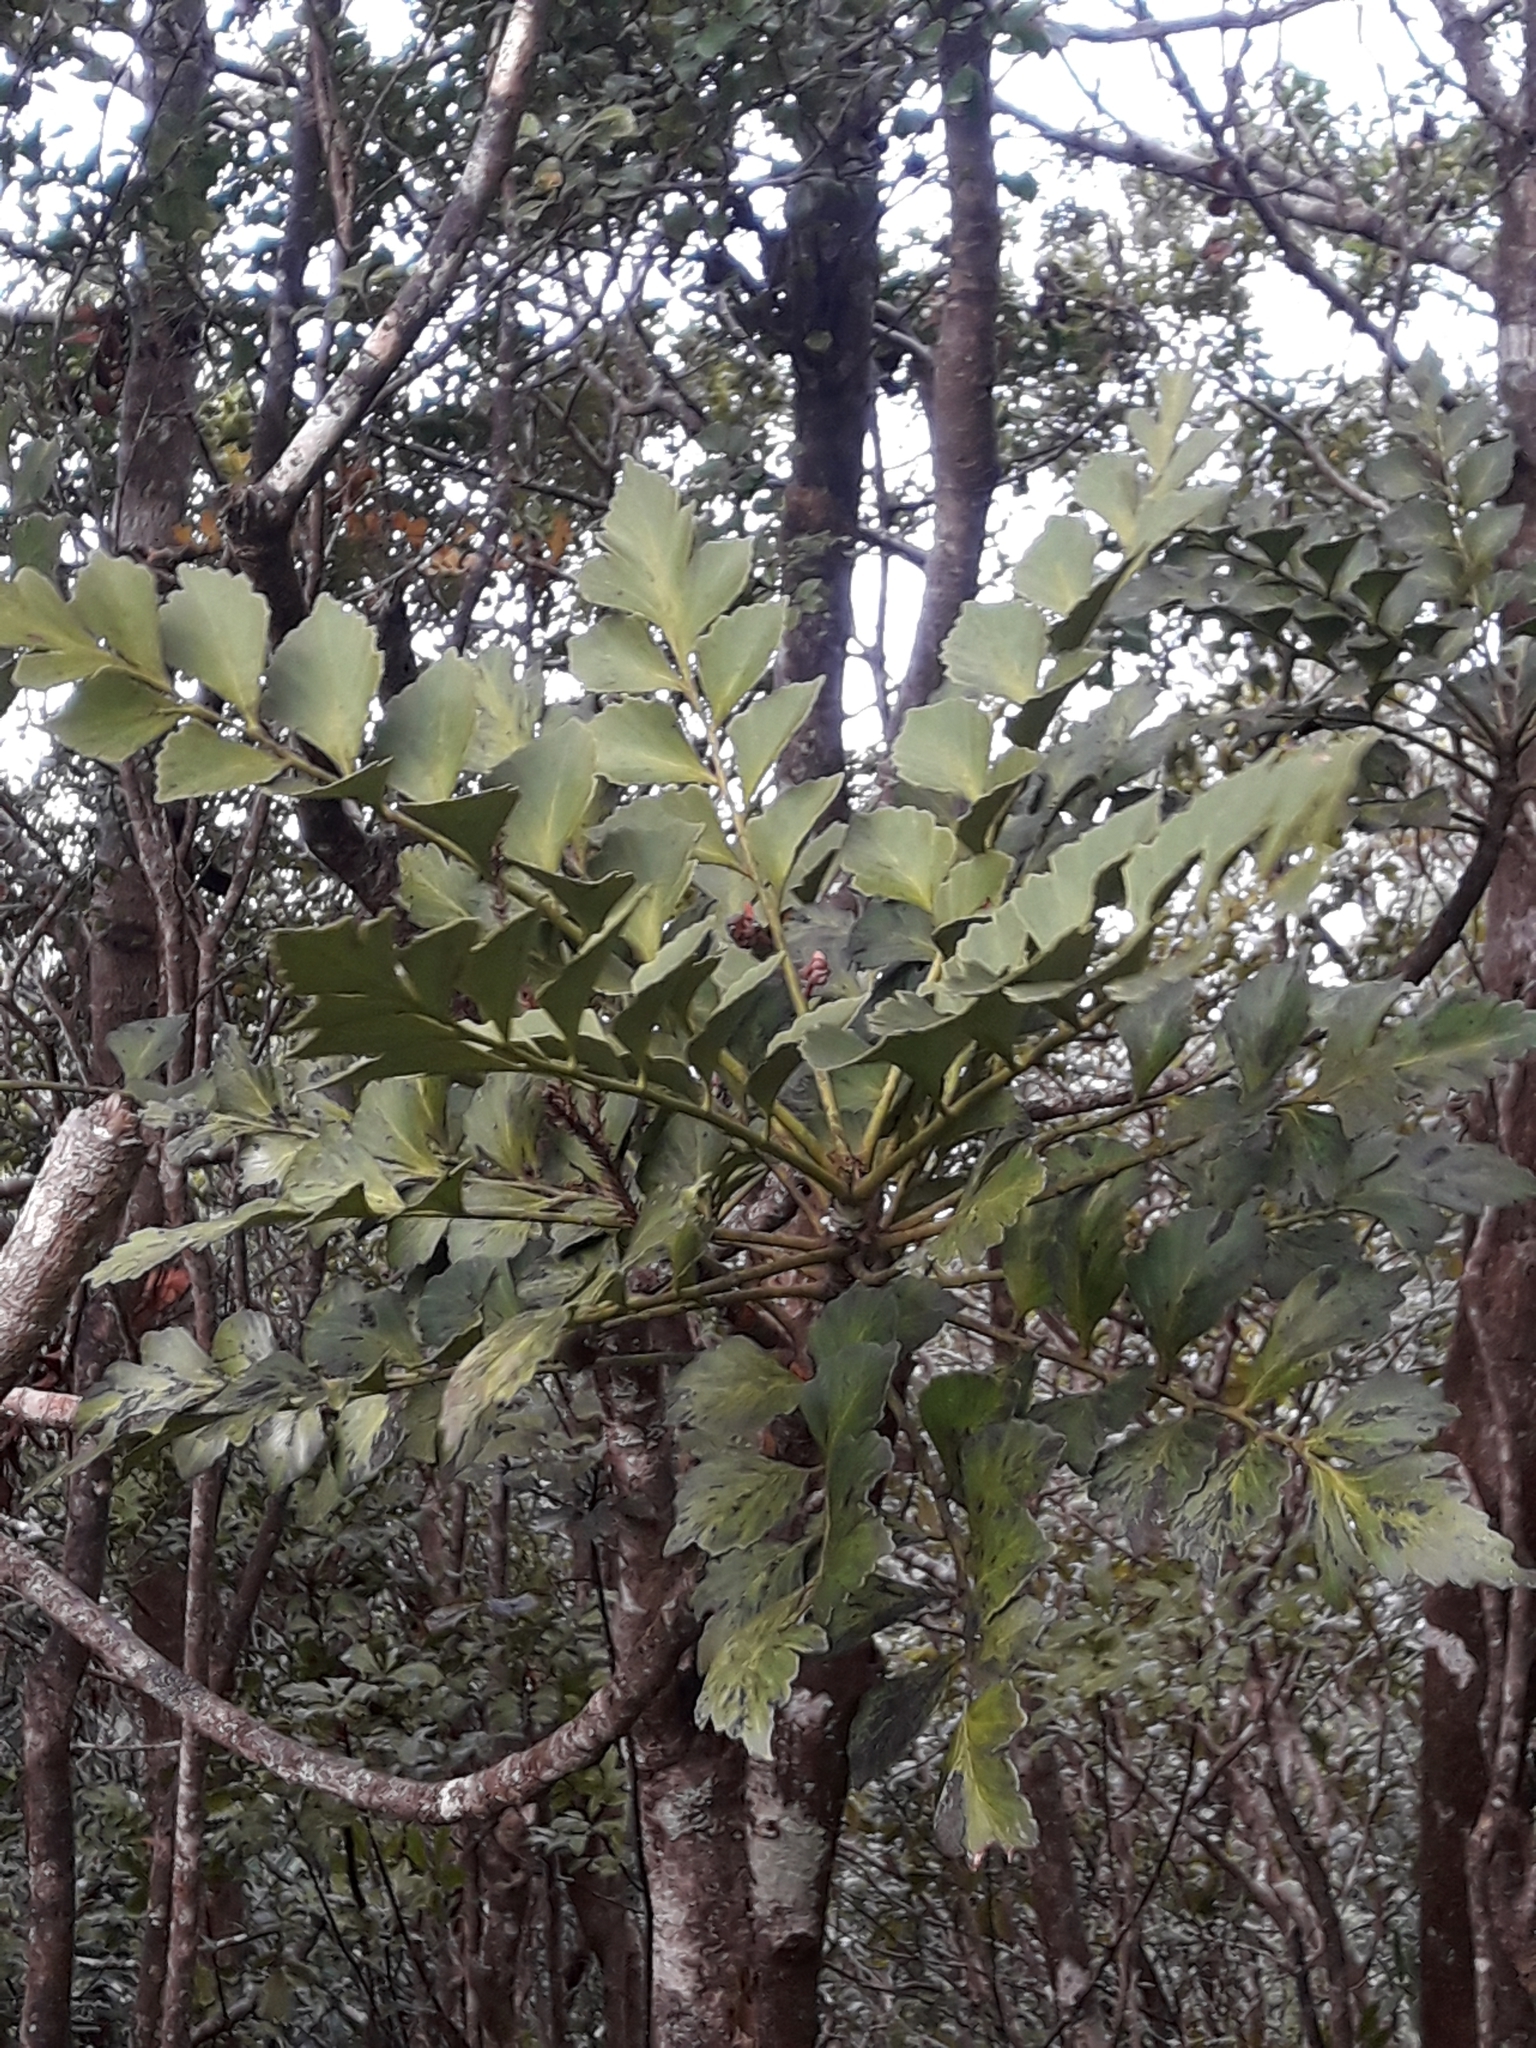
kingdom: Plantae
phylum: Tracheophyta
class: Pinopsida
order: Pinales
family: Phyllocladaceae
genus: Phyllocladus
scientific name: Phyllocladus toatoa
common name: Celery-top pine
